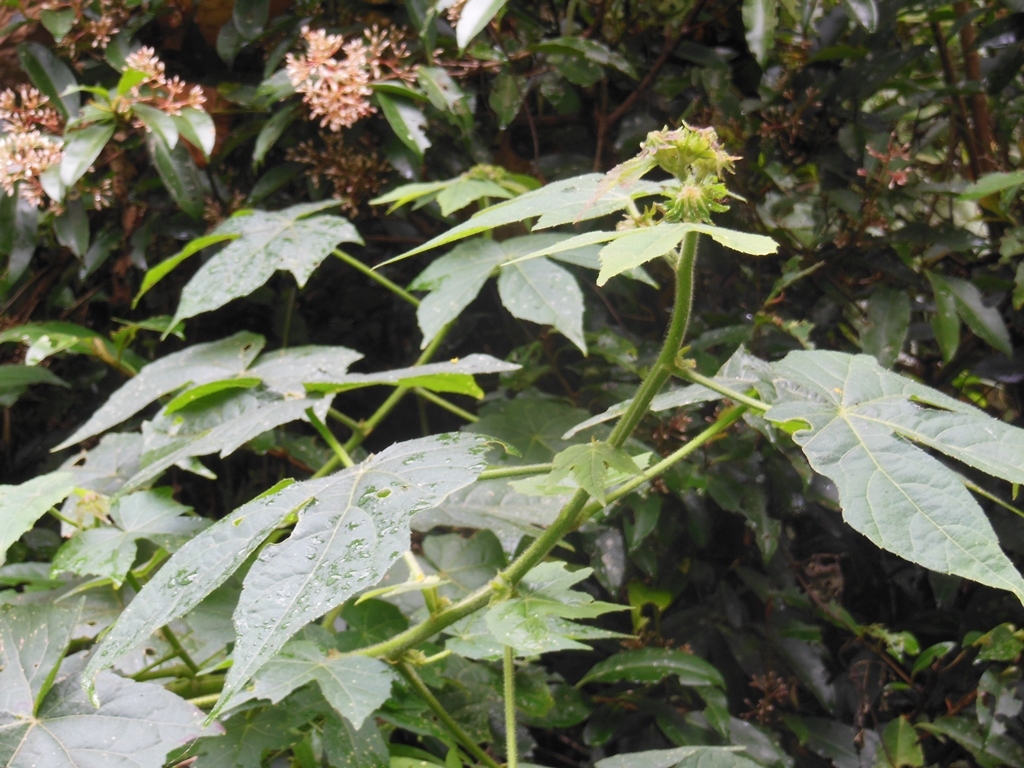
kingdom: Plantae
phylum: Tracheophyta
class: Magnoliopsida
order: Malvales
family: Malvaceae
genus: Hibiscus
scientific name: Hibiscus uncinellus
